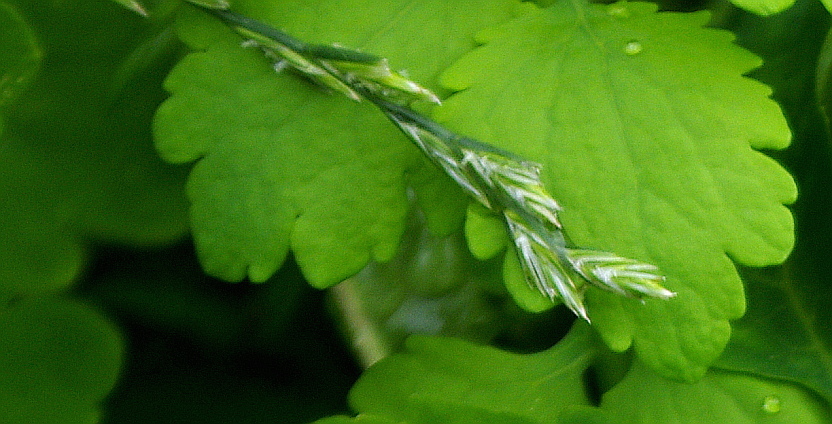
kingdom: Plantae
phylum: Tracheophyta
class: Liliopsida
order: Poales
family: Poaceae
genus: Lolium
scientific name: Lolium perenne
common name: Perennial ryegrass
